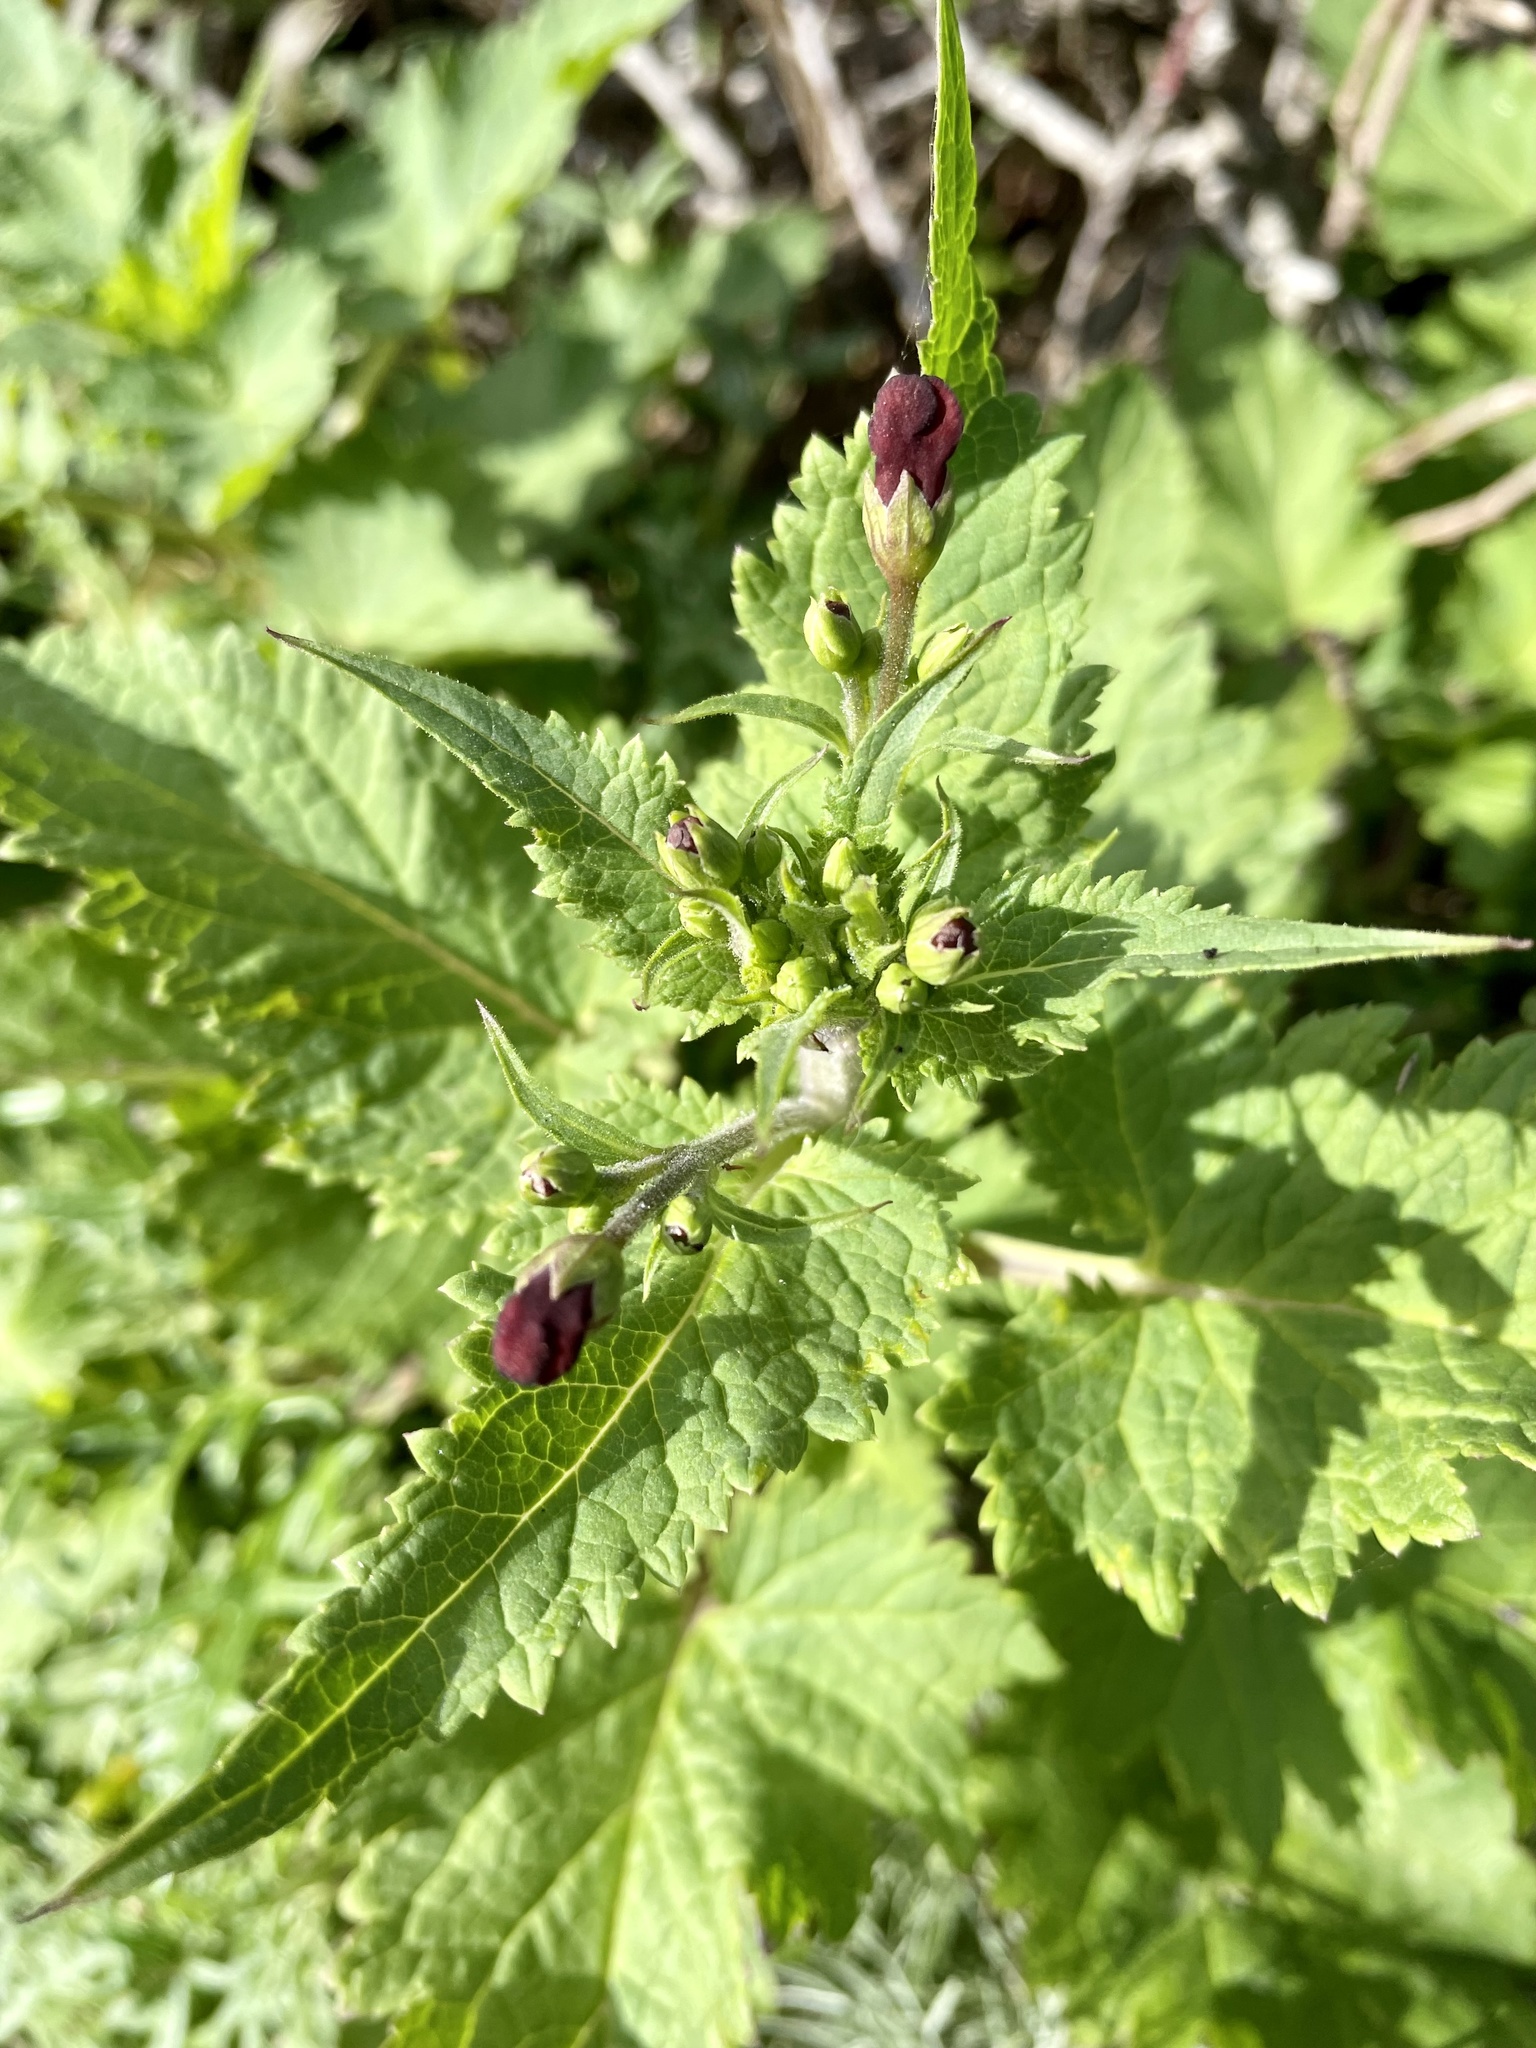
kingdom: Plantae
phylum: Tracheophyta
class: Magnoliopsida
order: Lamiales
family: Scrophulariaceae
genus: Scrophularia
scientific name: Scrophularia californica
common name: California figwort
